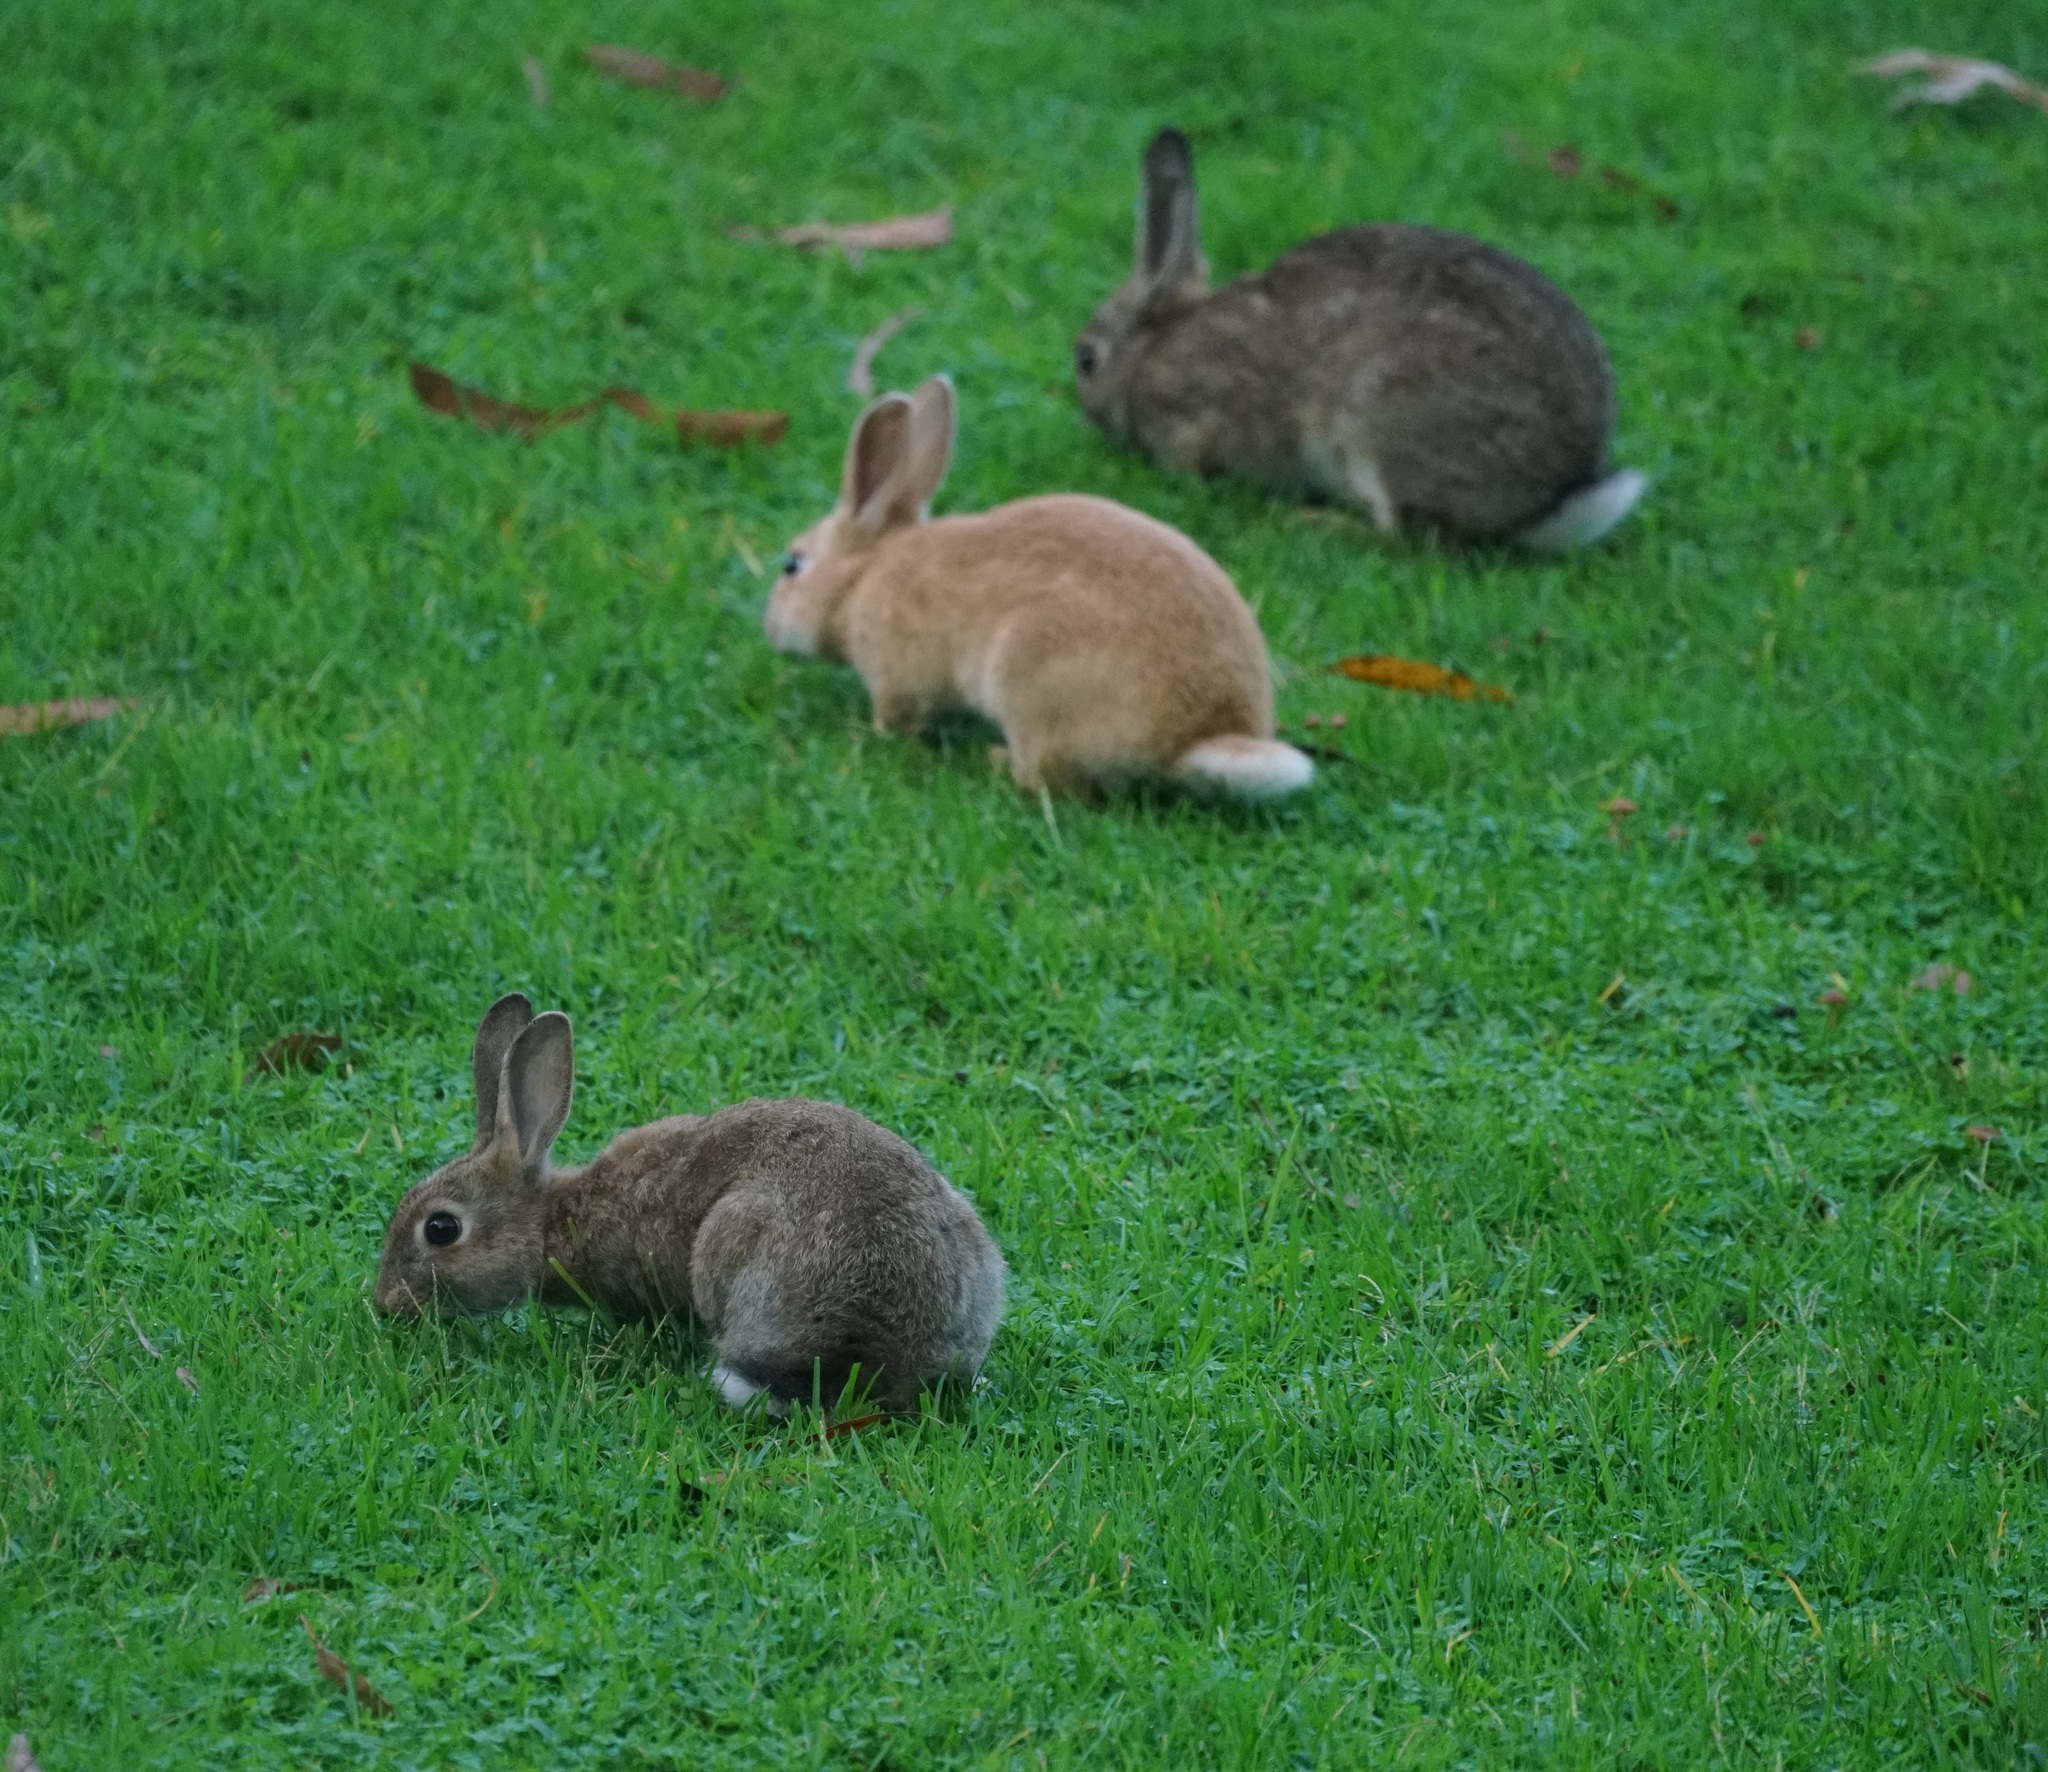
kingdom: Animalia
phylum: Chordata
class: Mammalia
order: Lagomorpha
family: Leporidae
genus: Oryctolagus
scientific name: Oryctolagus cuniculus
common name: European rabbit
